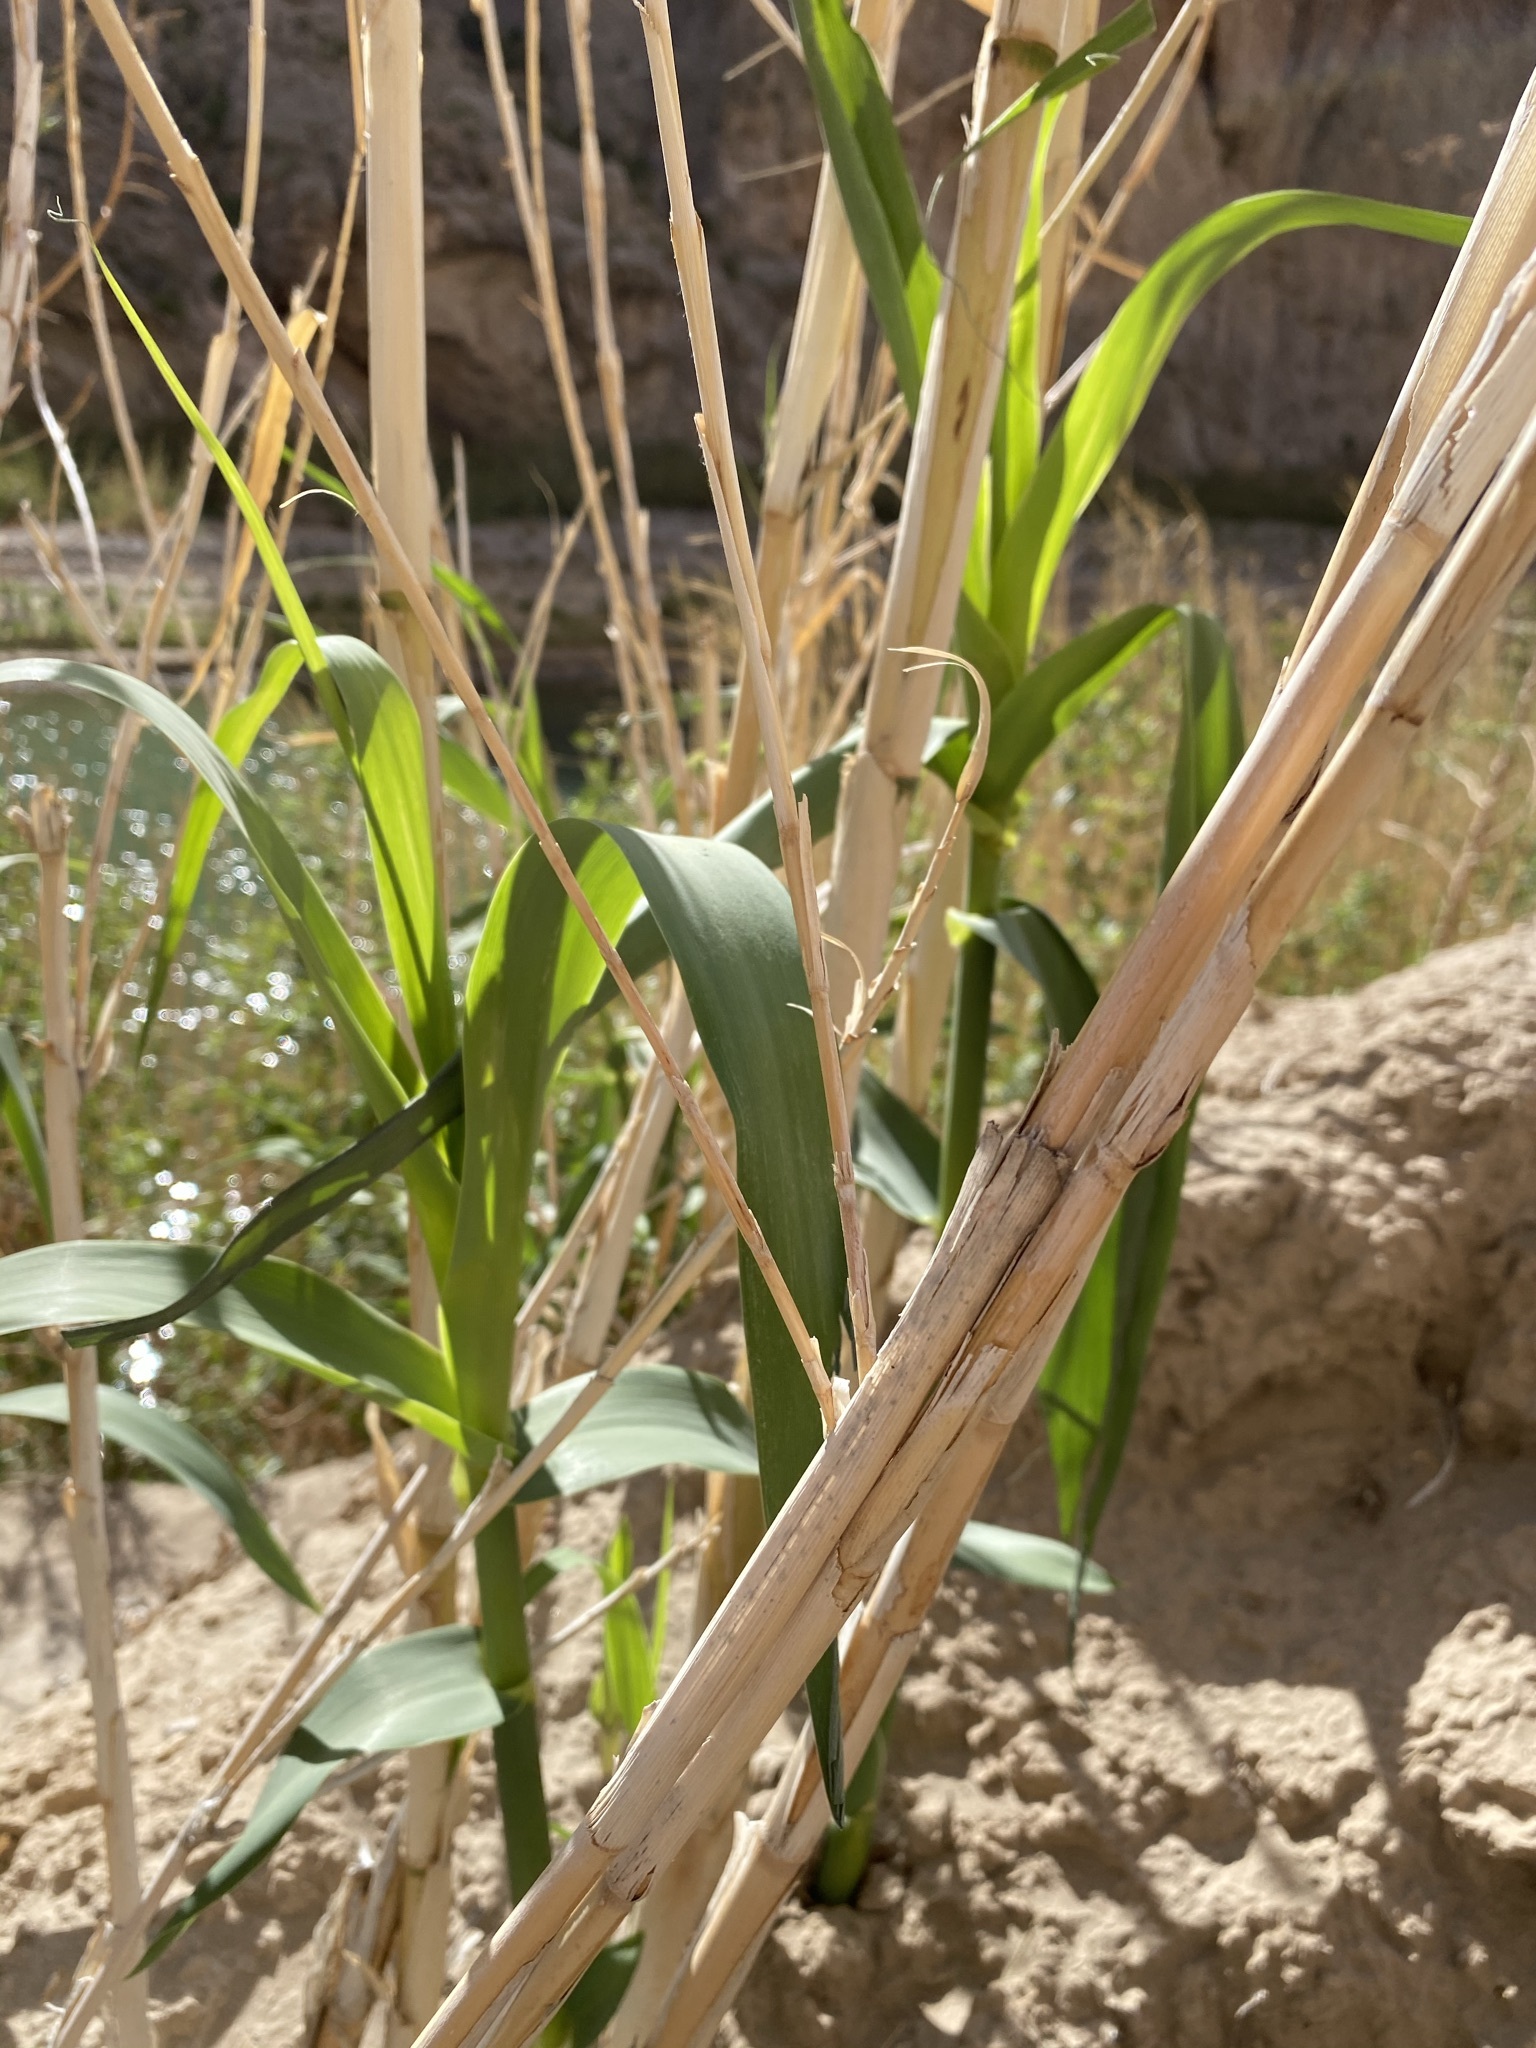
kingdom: Plantae
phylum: Tracheophyta
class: Liliopsida
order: Poales
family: Poaceae
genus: Arundo
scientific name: Arundo donax
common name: Giant reed
